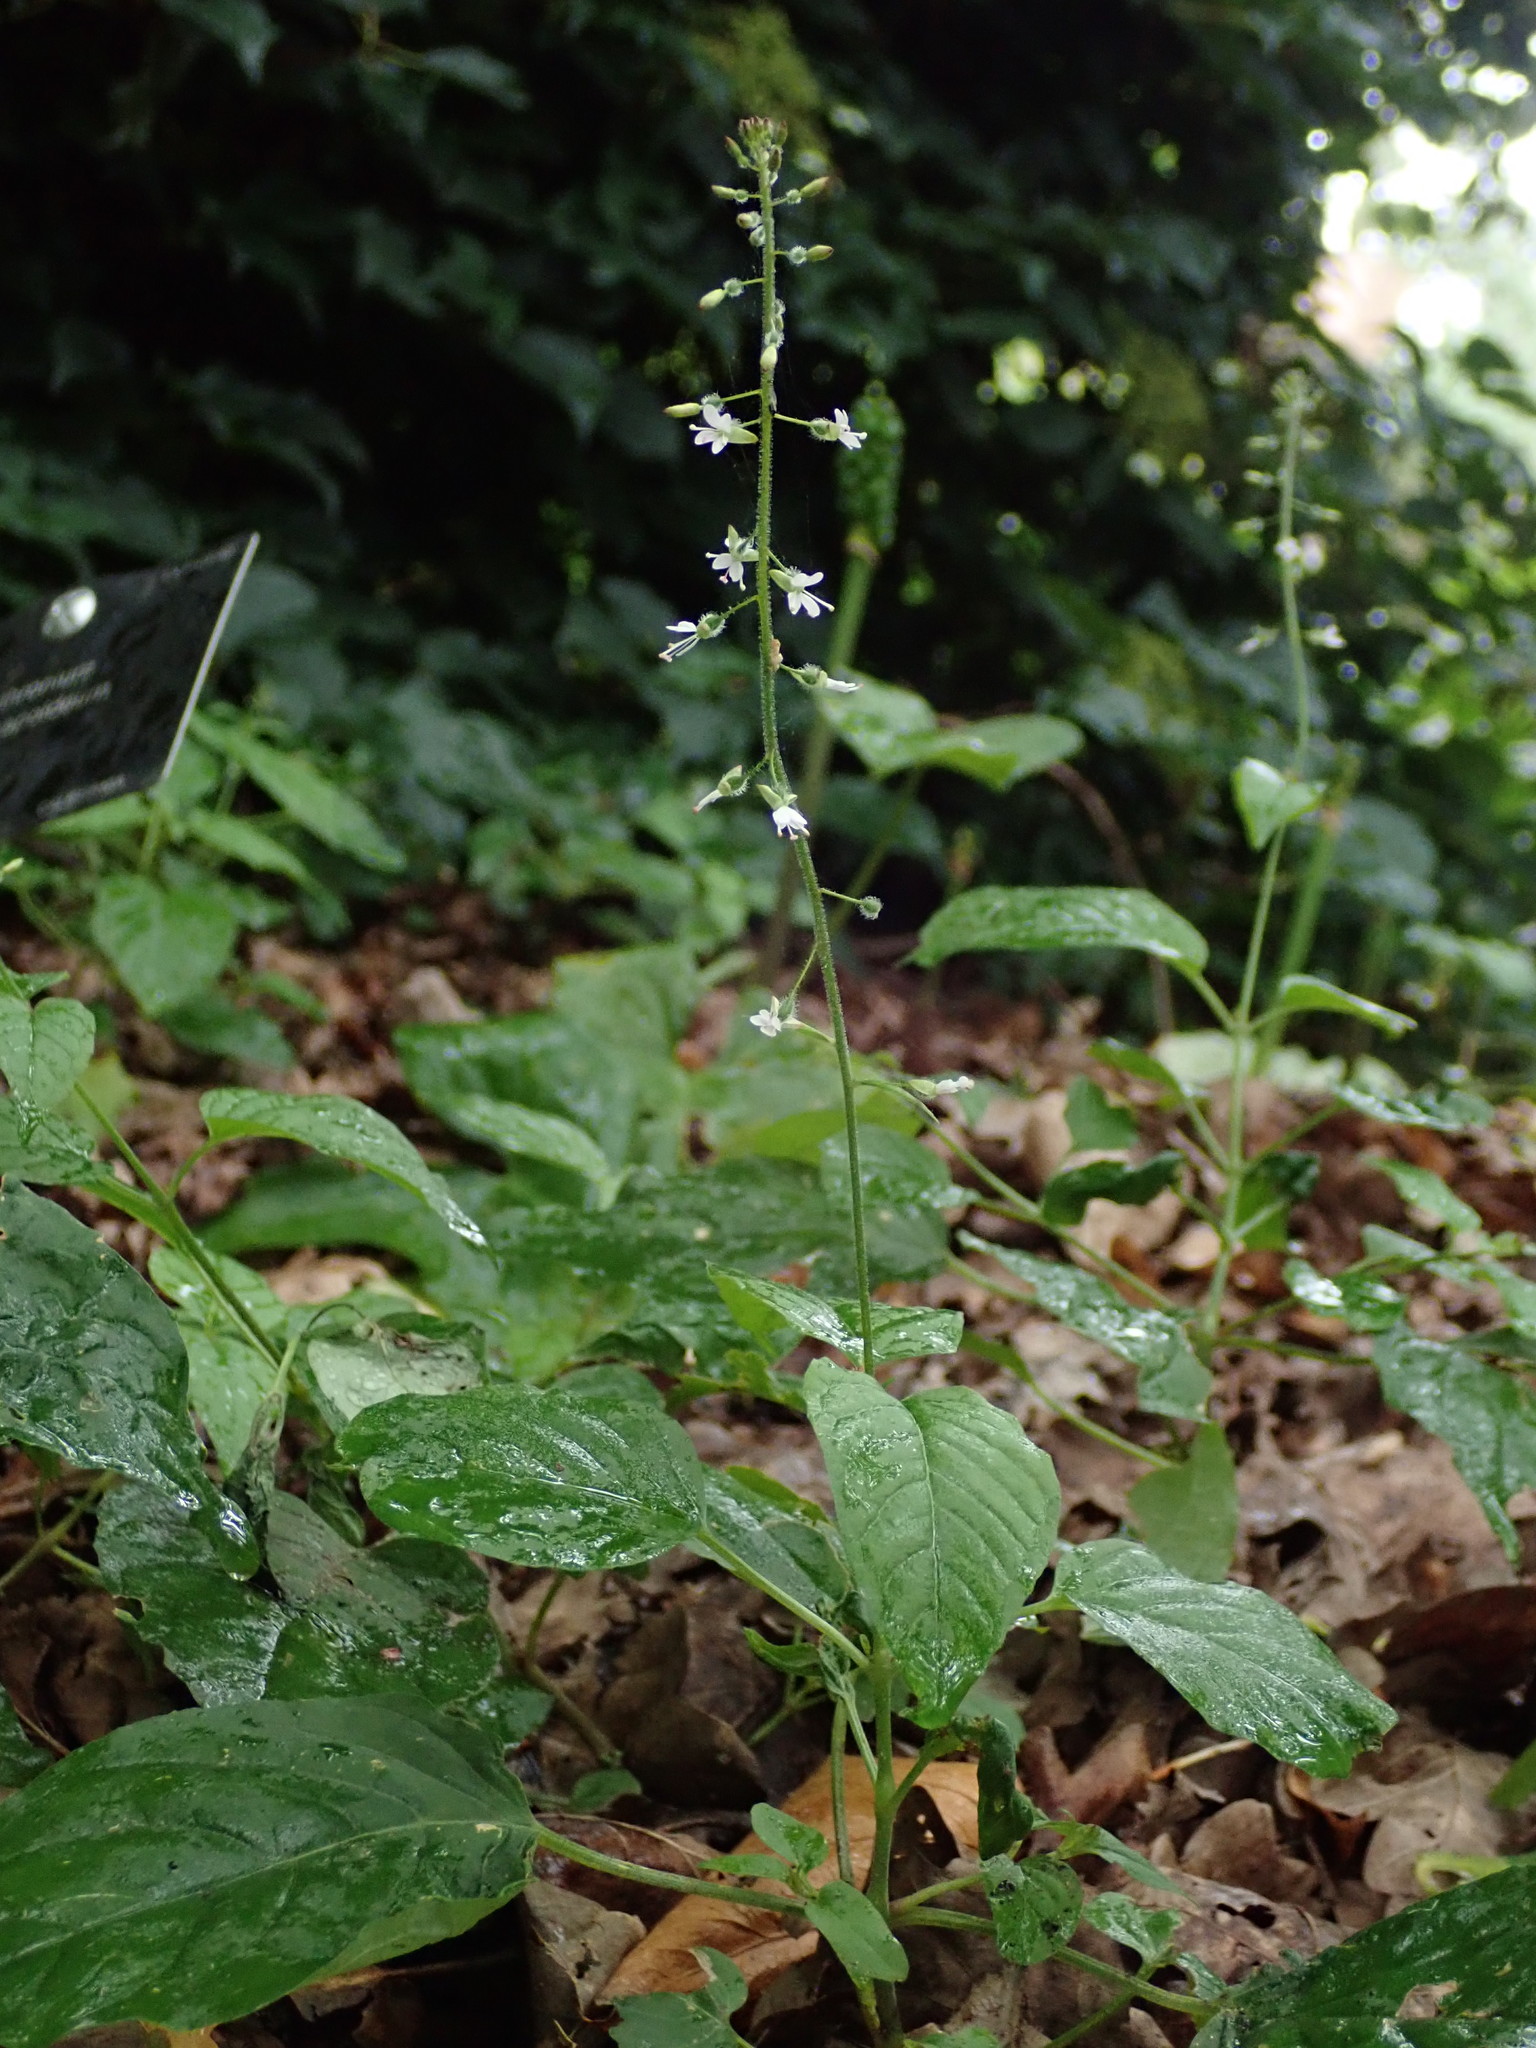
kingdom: Plantae
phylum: Tracheophyta
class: Magnoliopsida
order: Myrtales
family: Onagraceae
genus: Circaea
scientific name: Circaea lutetiana
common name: Enchanter's-nightshade
